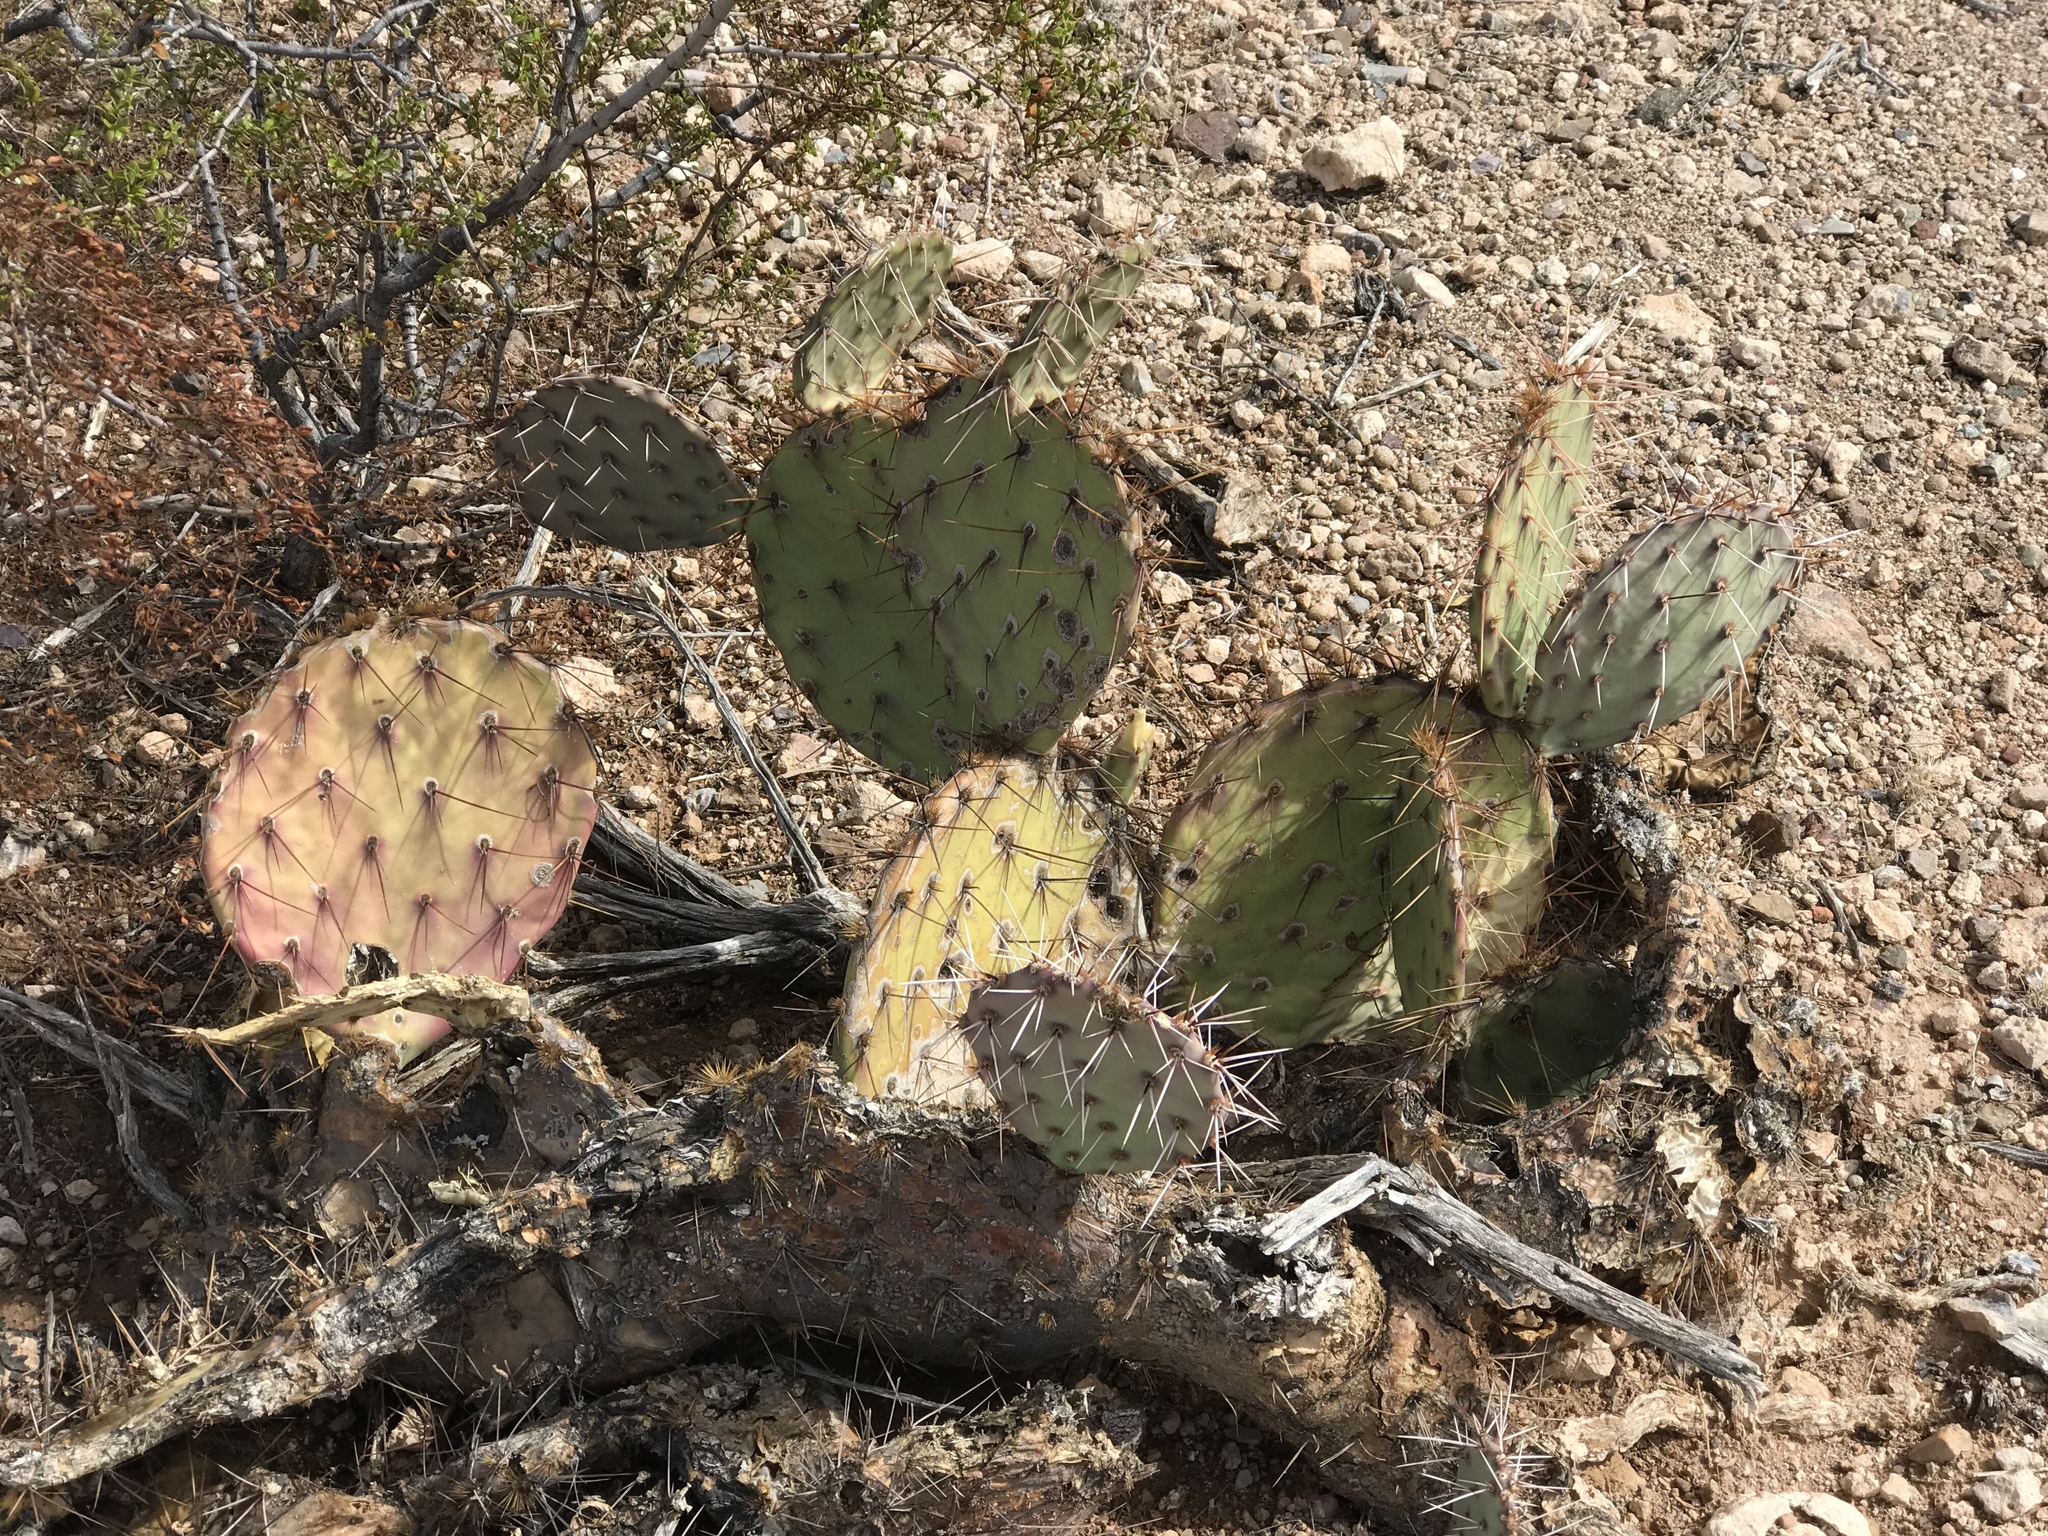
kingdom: Plantae
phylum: Tracheophyta
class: Magnoliopsida
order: Caryophyllales
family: Cactaceae
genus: Opuntia
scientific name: Opuntia engelmannii
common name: Cactus-apple
